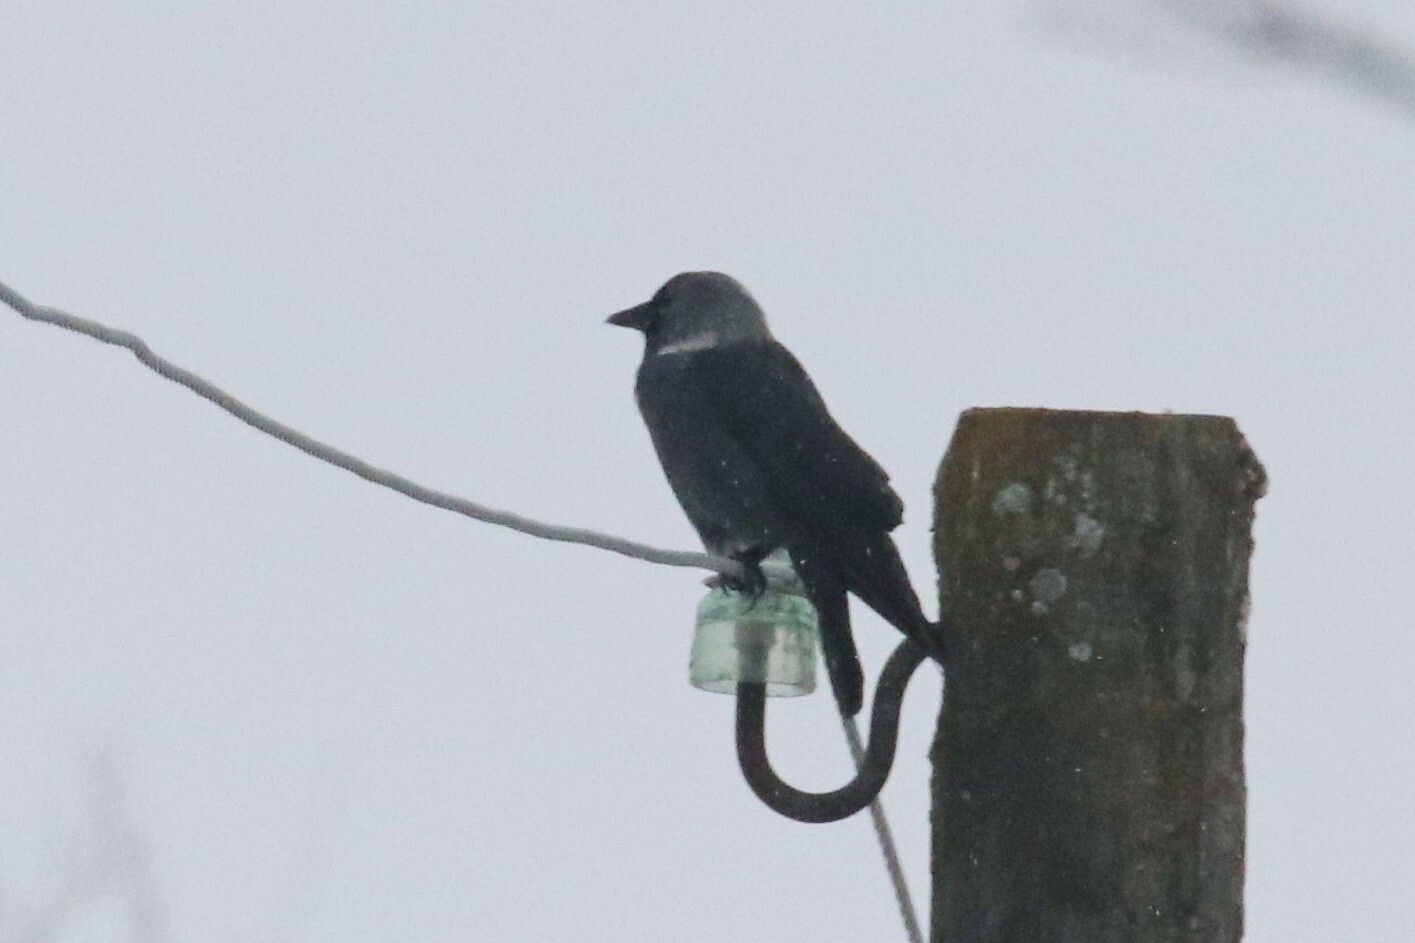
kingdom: Animalia
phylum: Chordata
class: Aves
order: Passeriformes
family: Corvidae
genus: Coloeus
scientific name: Coloeus monedula
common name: Western jackdaw
